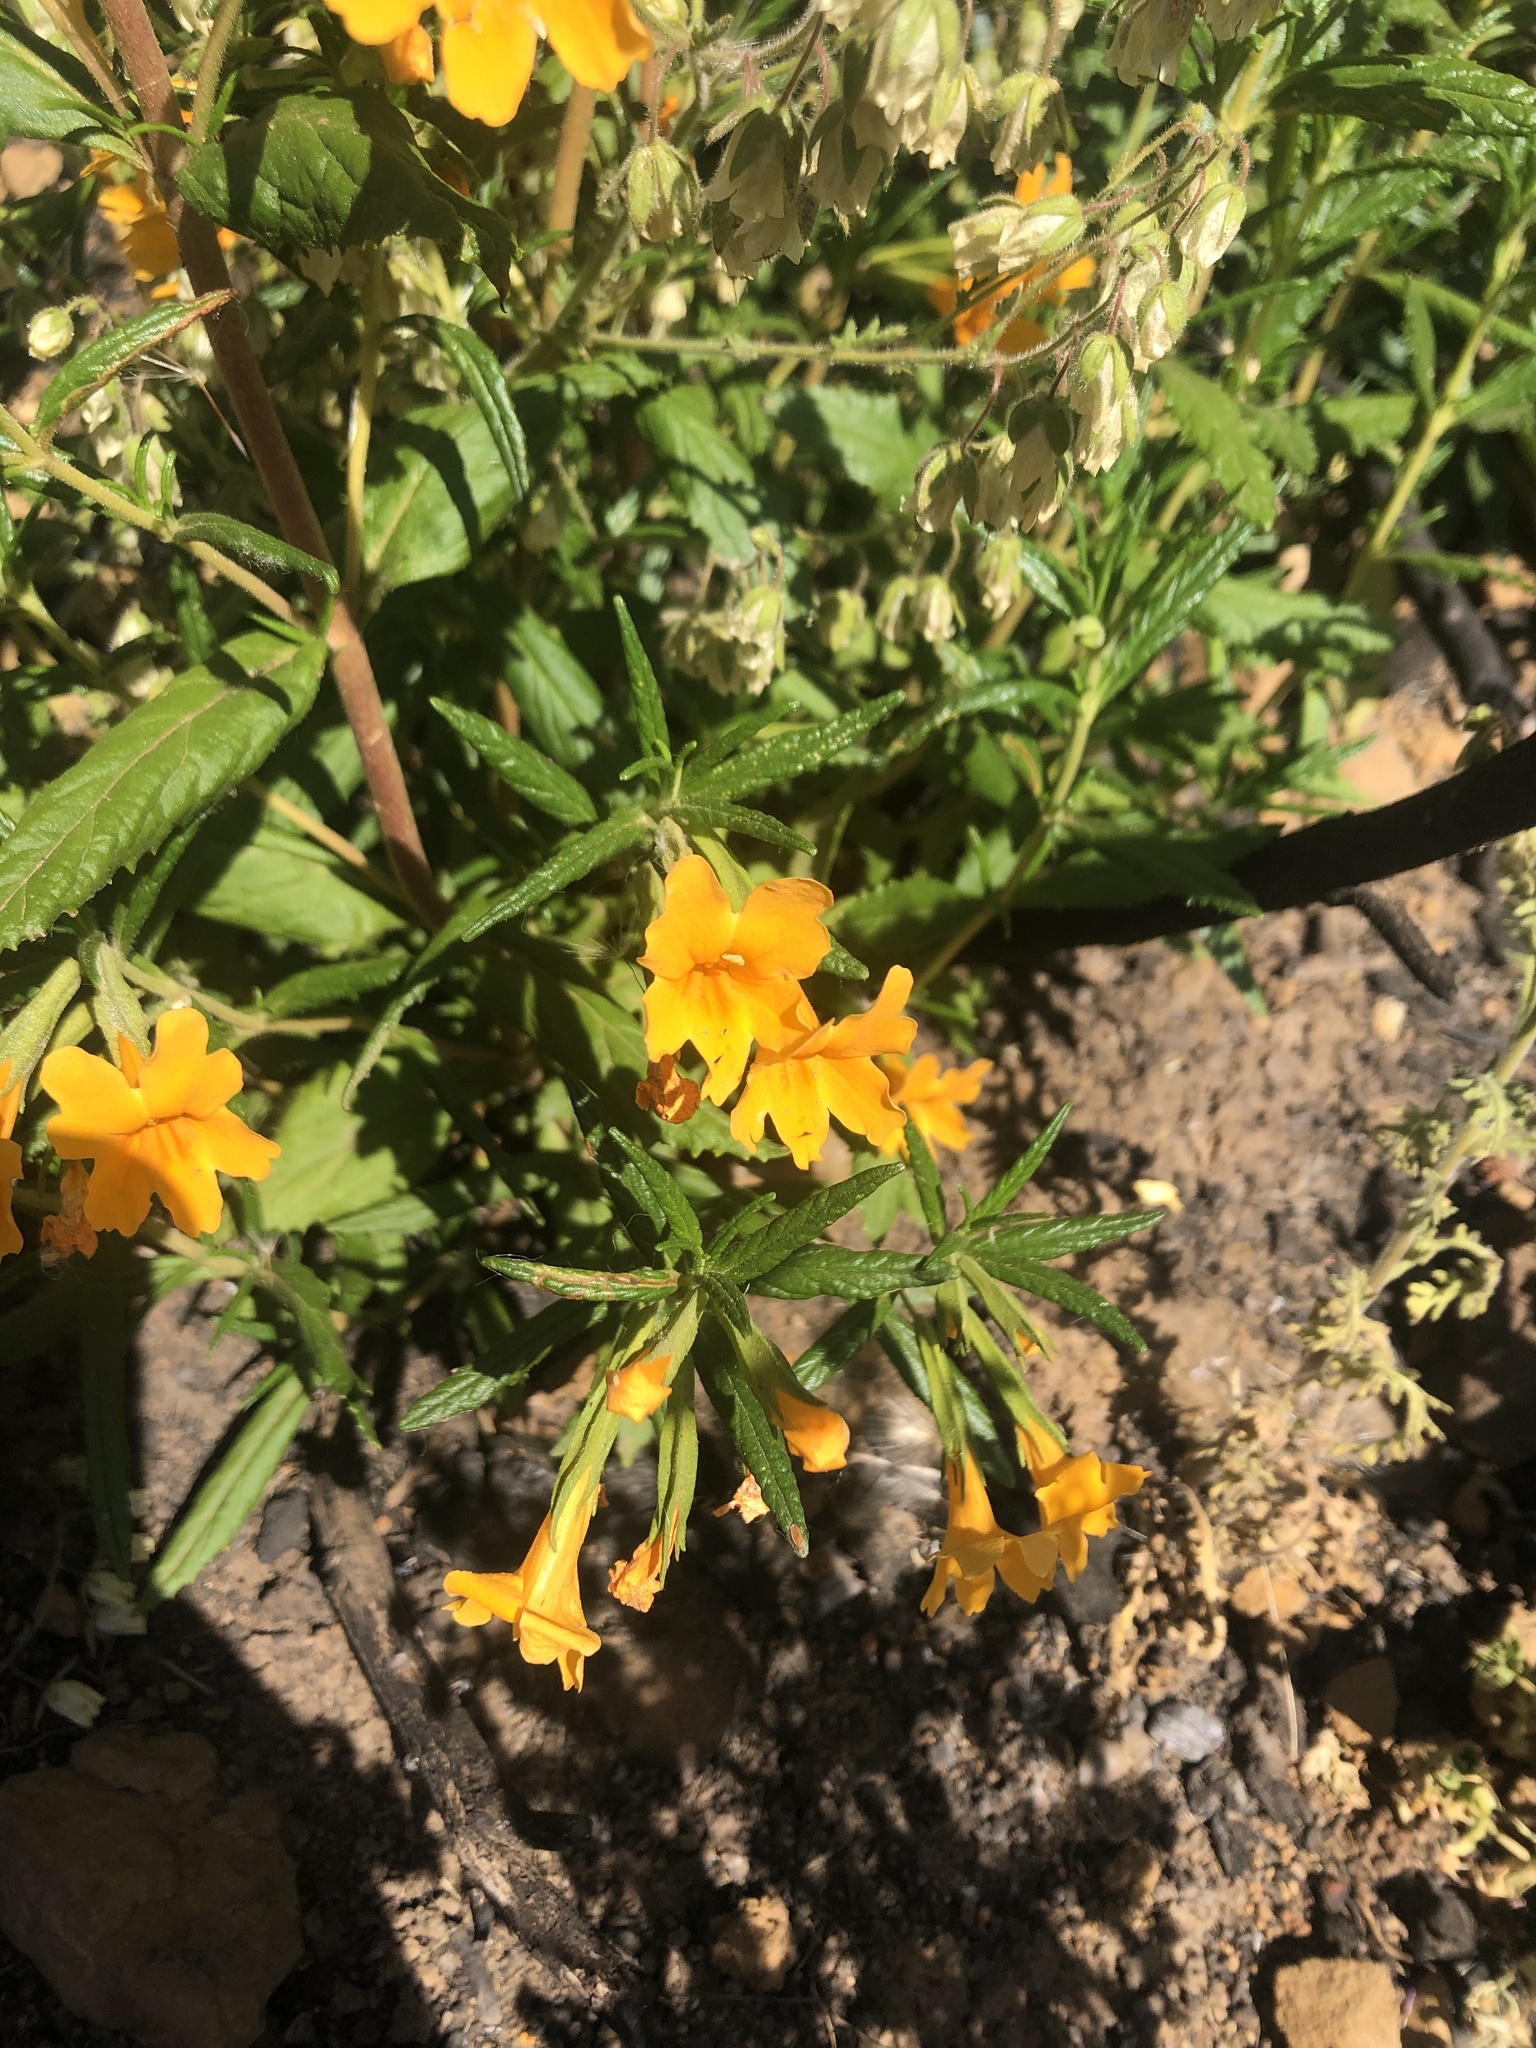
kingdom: Plantae
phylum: Tracheophyta
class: Magnoliopsida
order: Lamiales
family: Phrymaceae
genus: Diplacus
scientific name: Diplacus aurantiacus
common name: Bush monkey-flower
